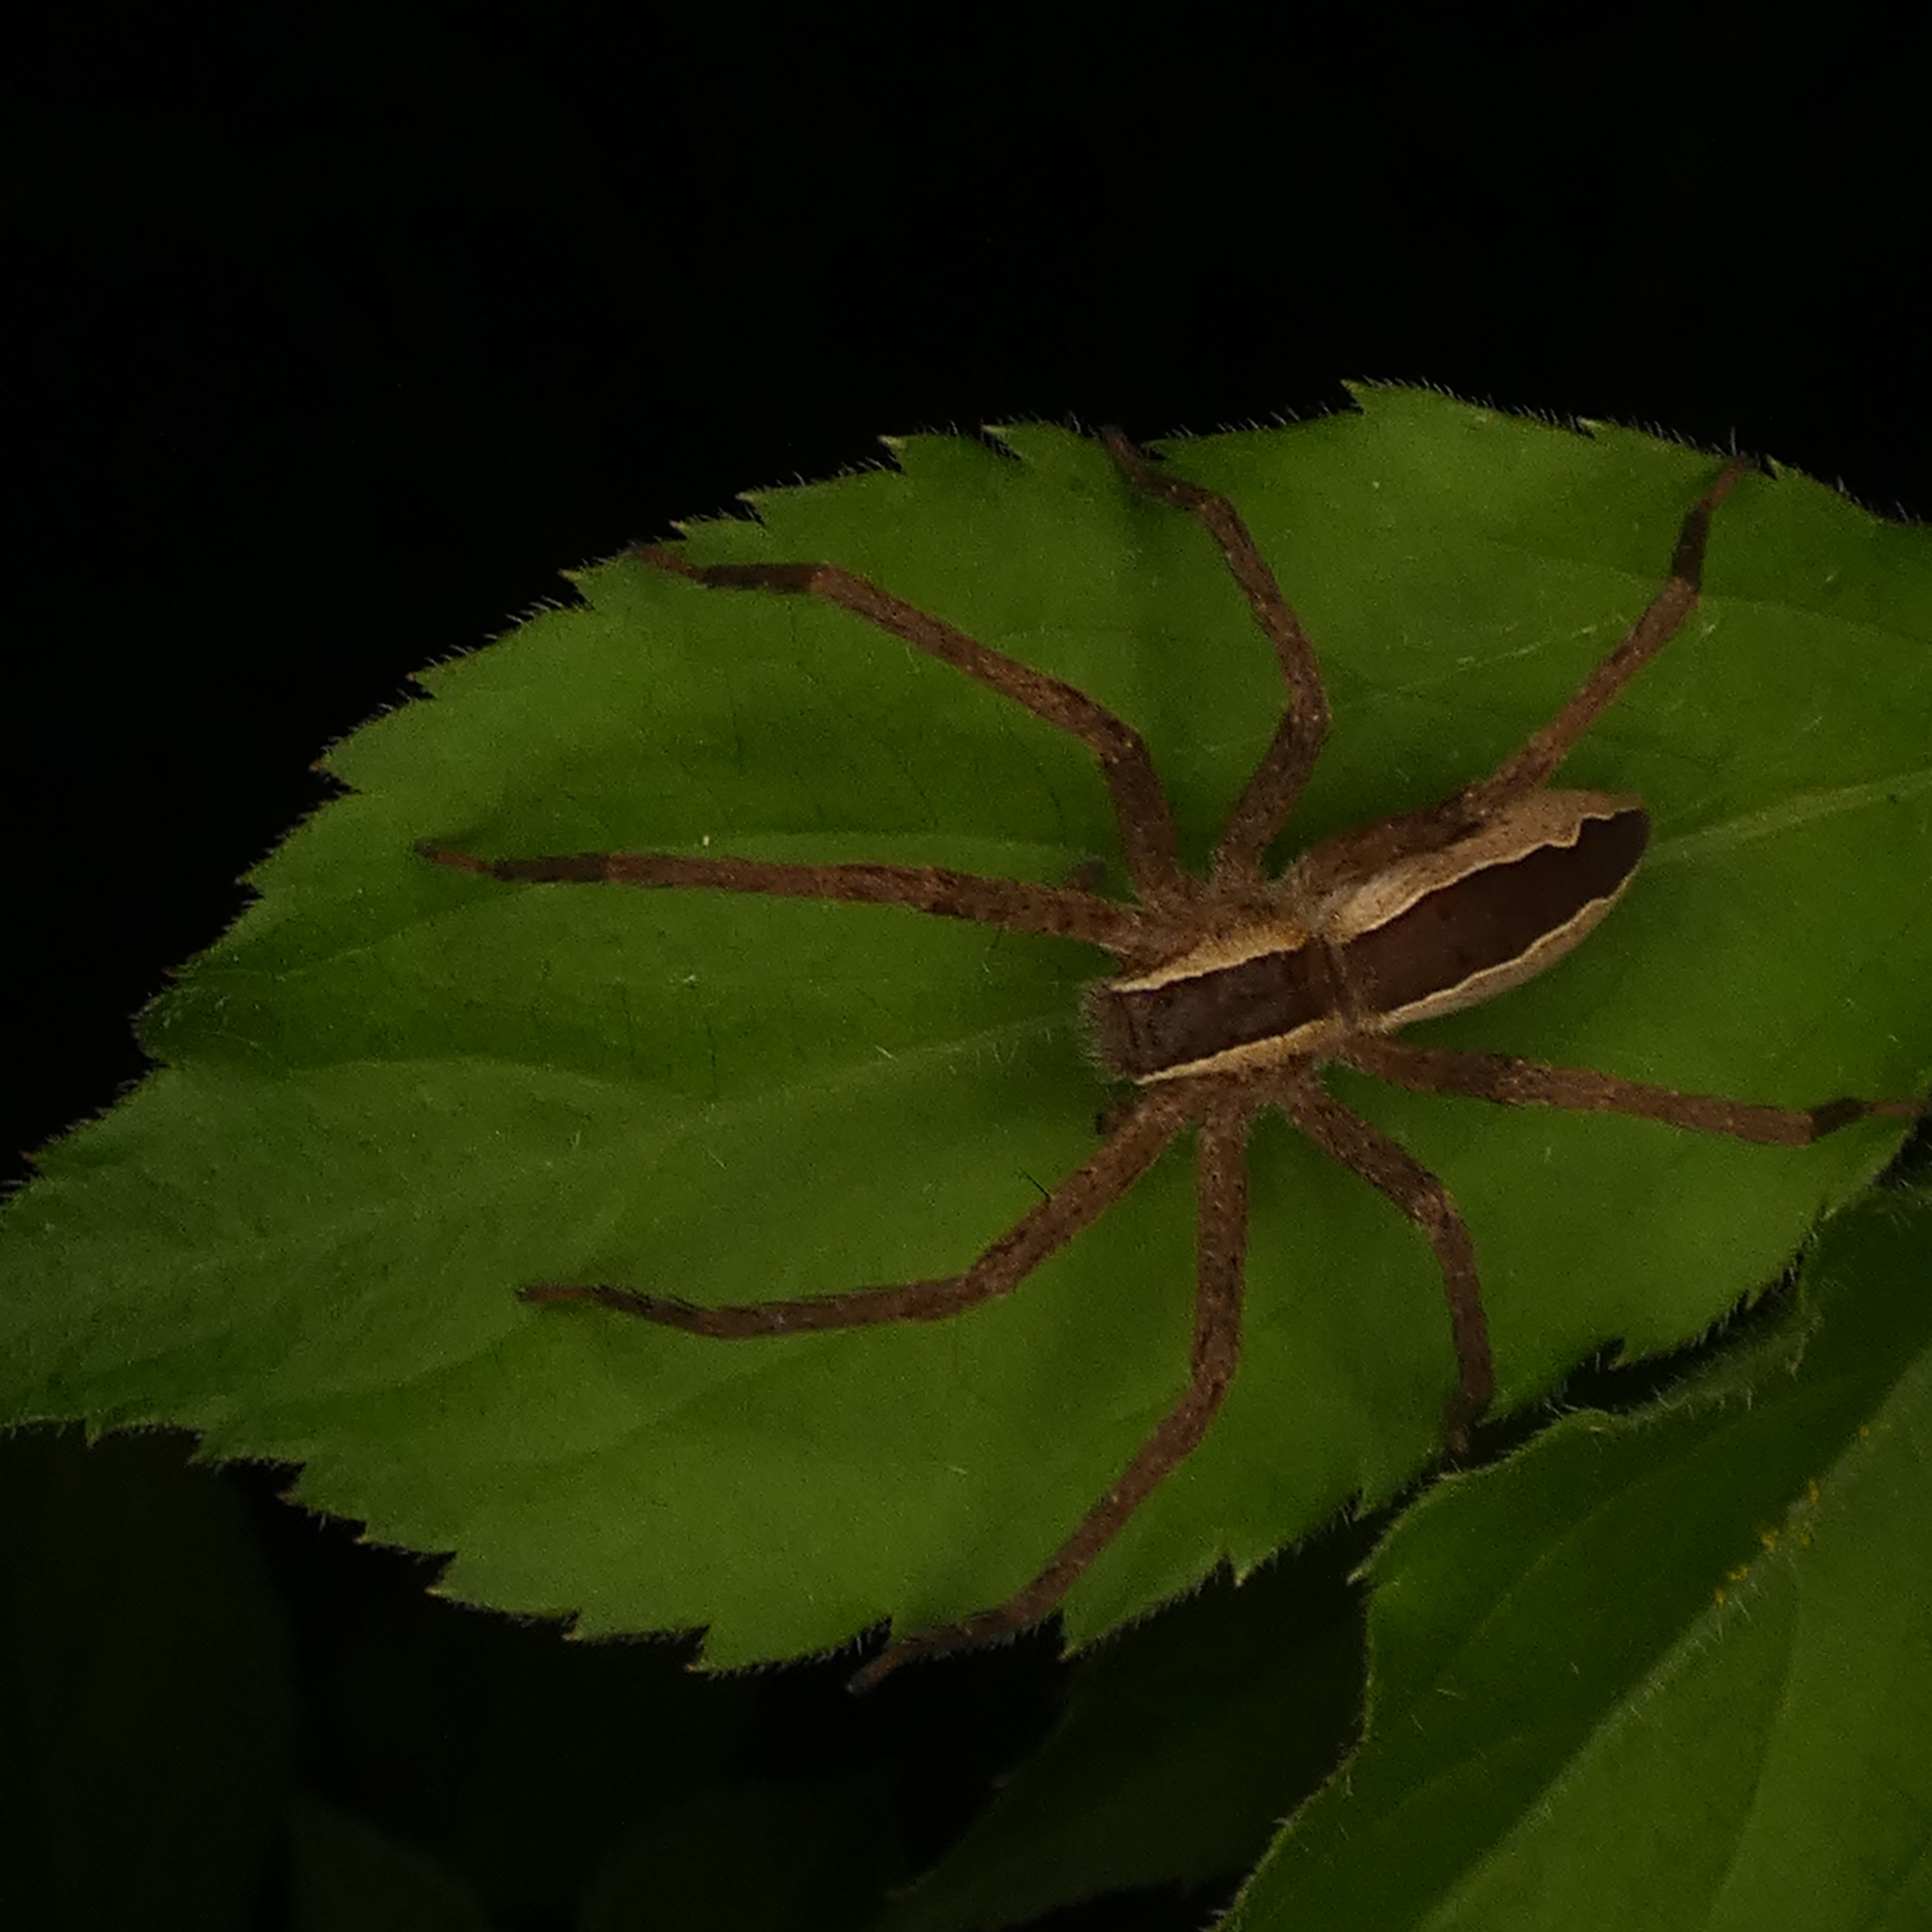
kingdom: Animalia
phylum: Arthropoda
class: Arachnida
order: Araneae
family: Pisauridae
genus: Pisaurina
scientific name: Pisaurina mira
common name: American nursery web spider
